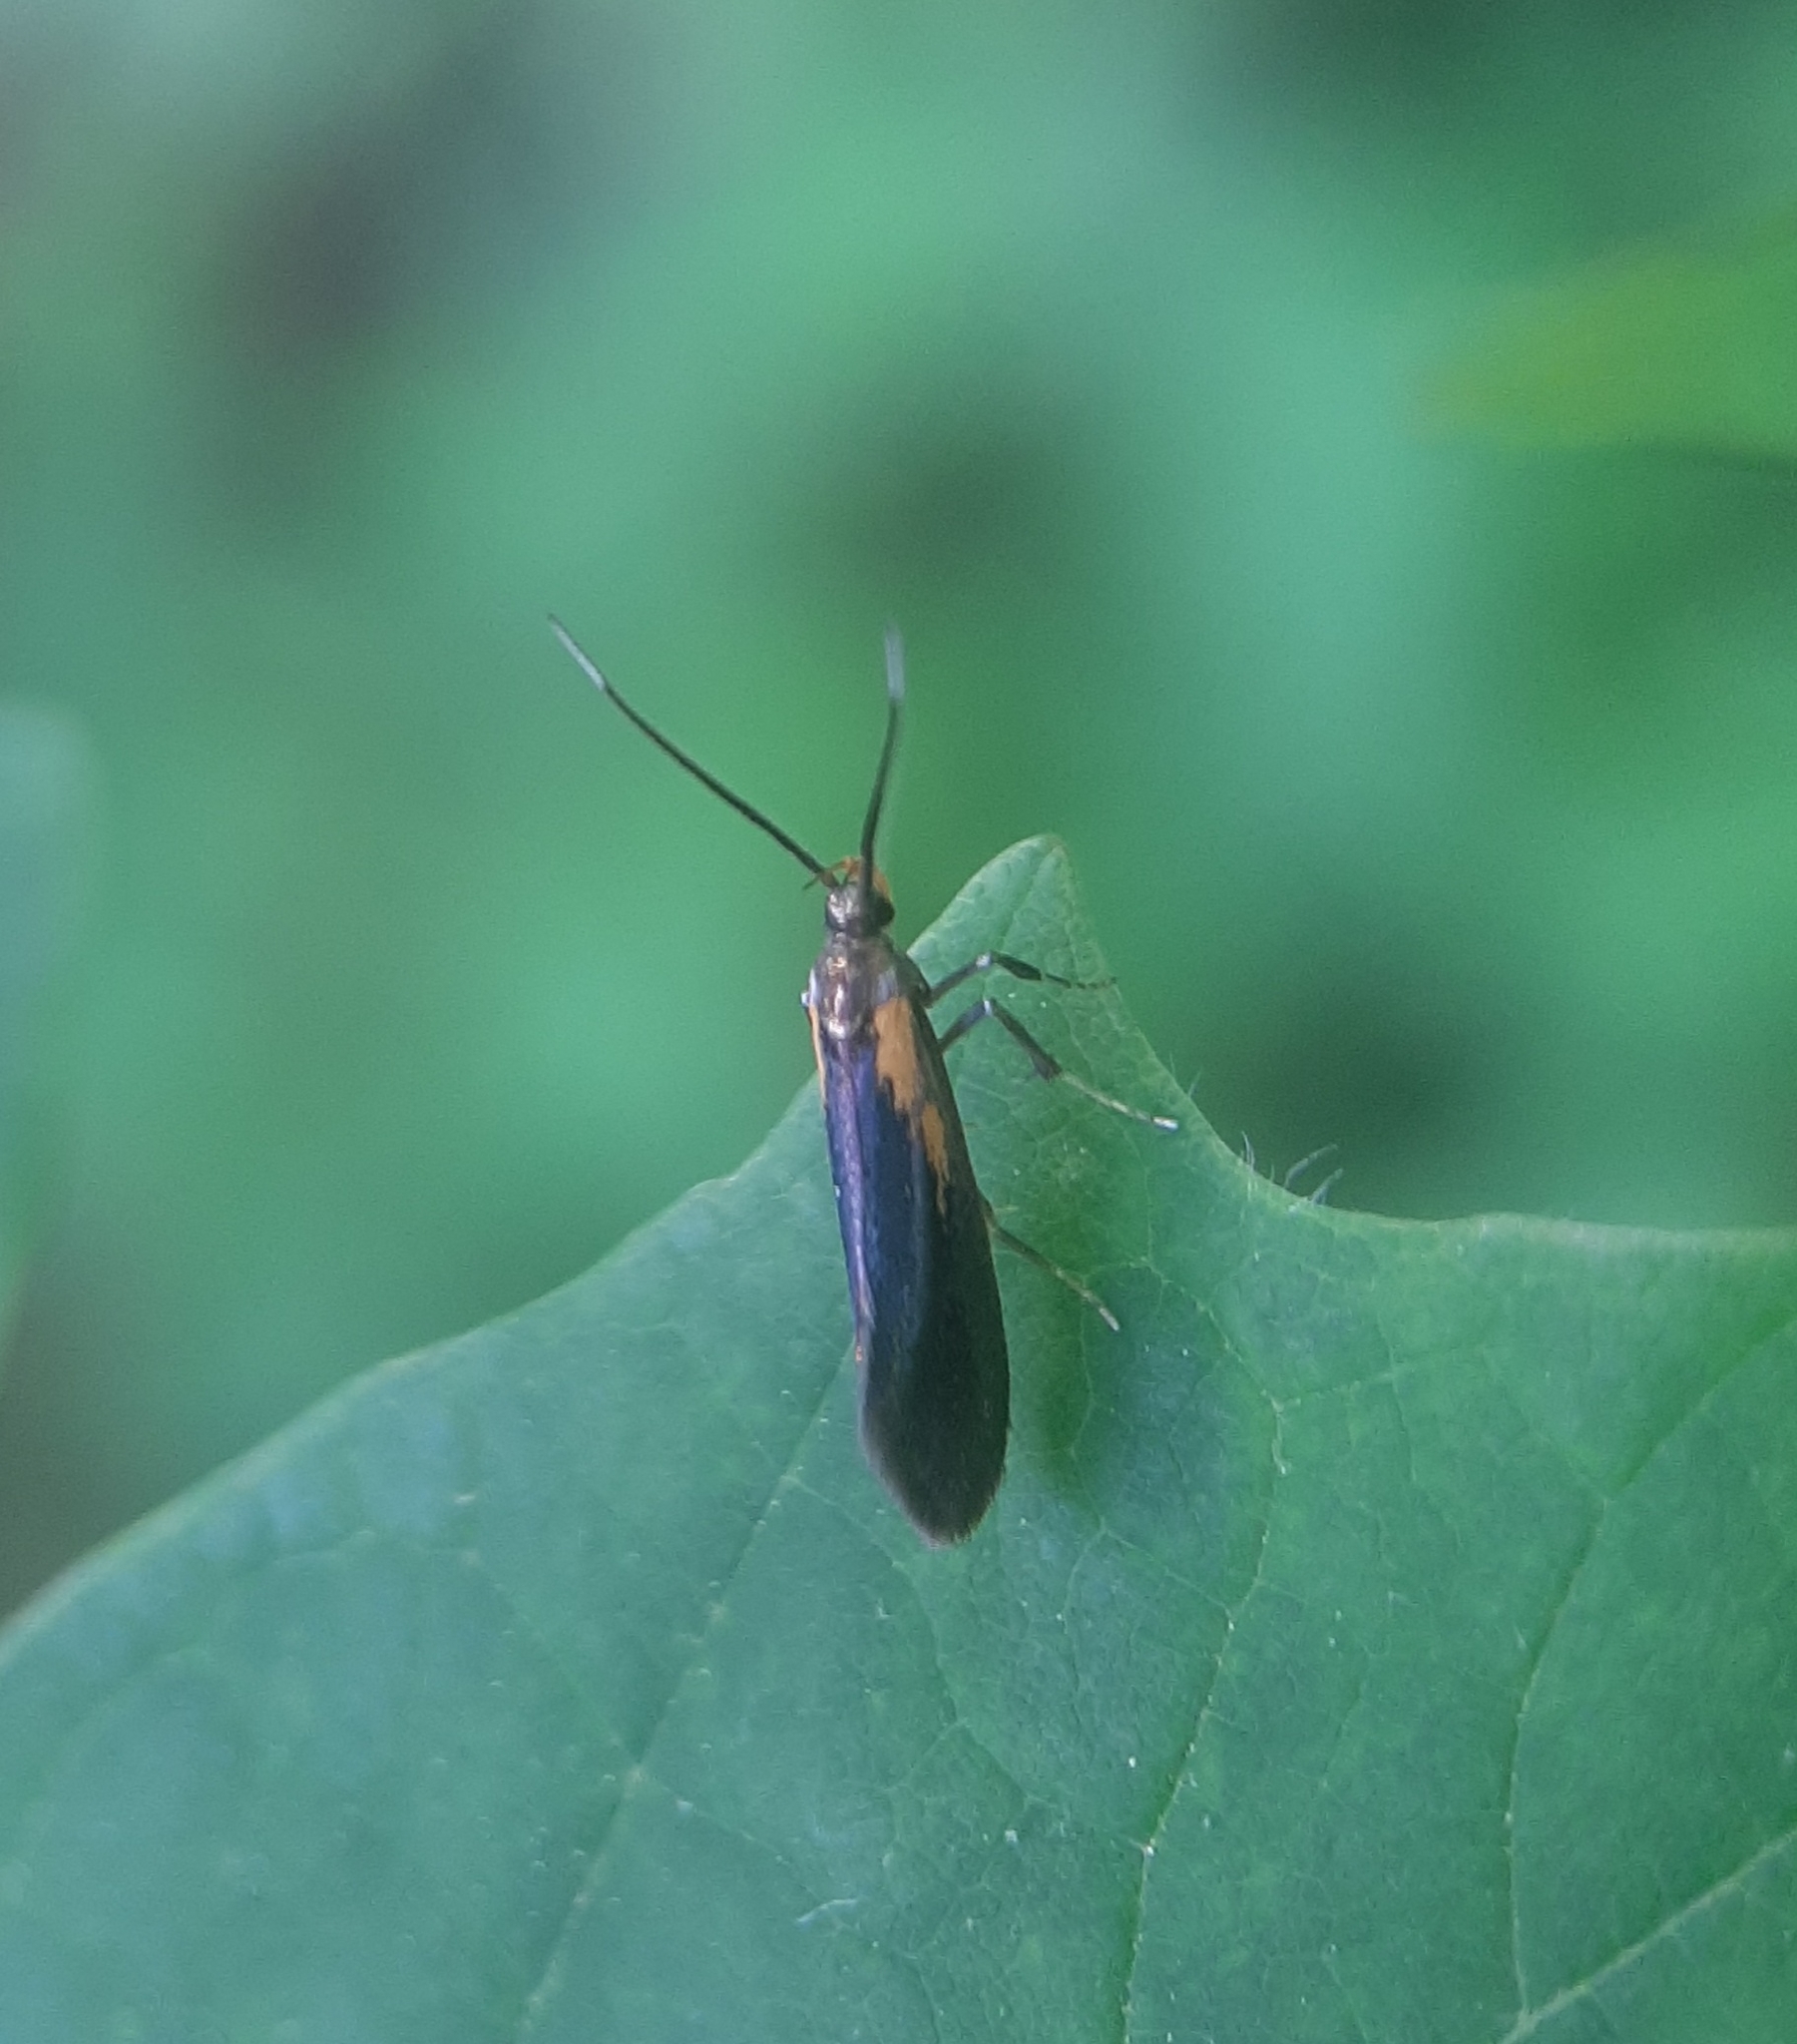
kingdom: Animalia
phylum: Arthropoda
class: Insecta
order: Lepidoptera
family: Oecophoridae
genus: Mathildana
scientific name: Mathildana newmanella
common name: Newman's mathildana moth
